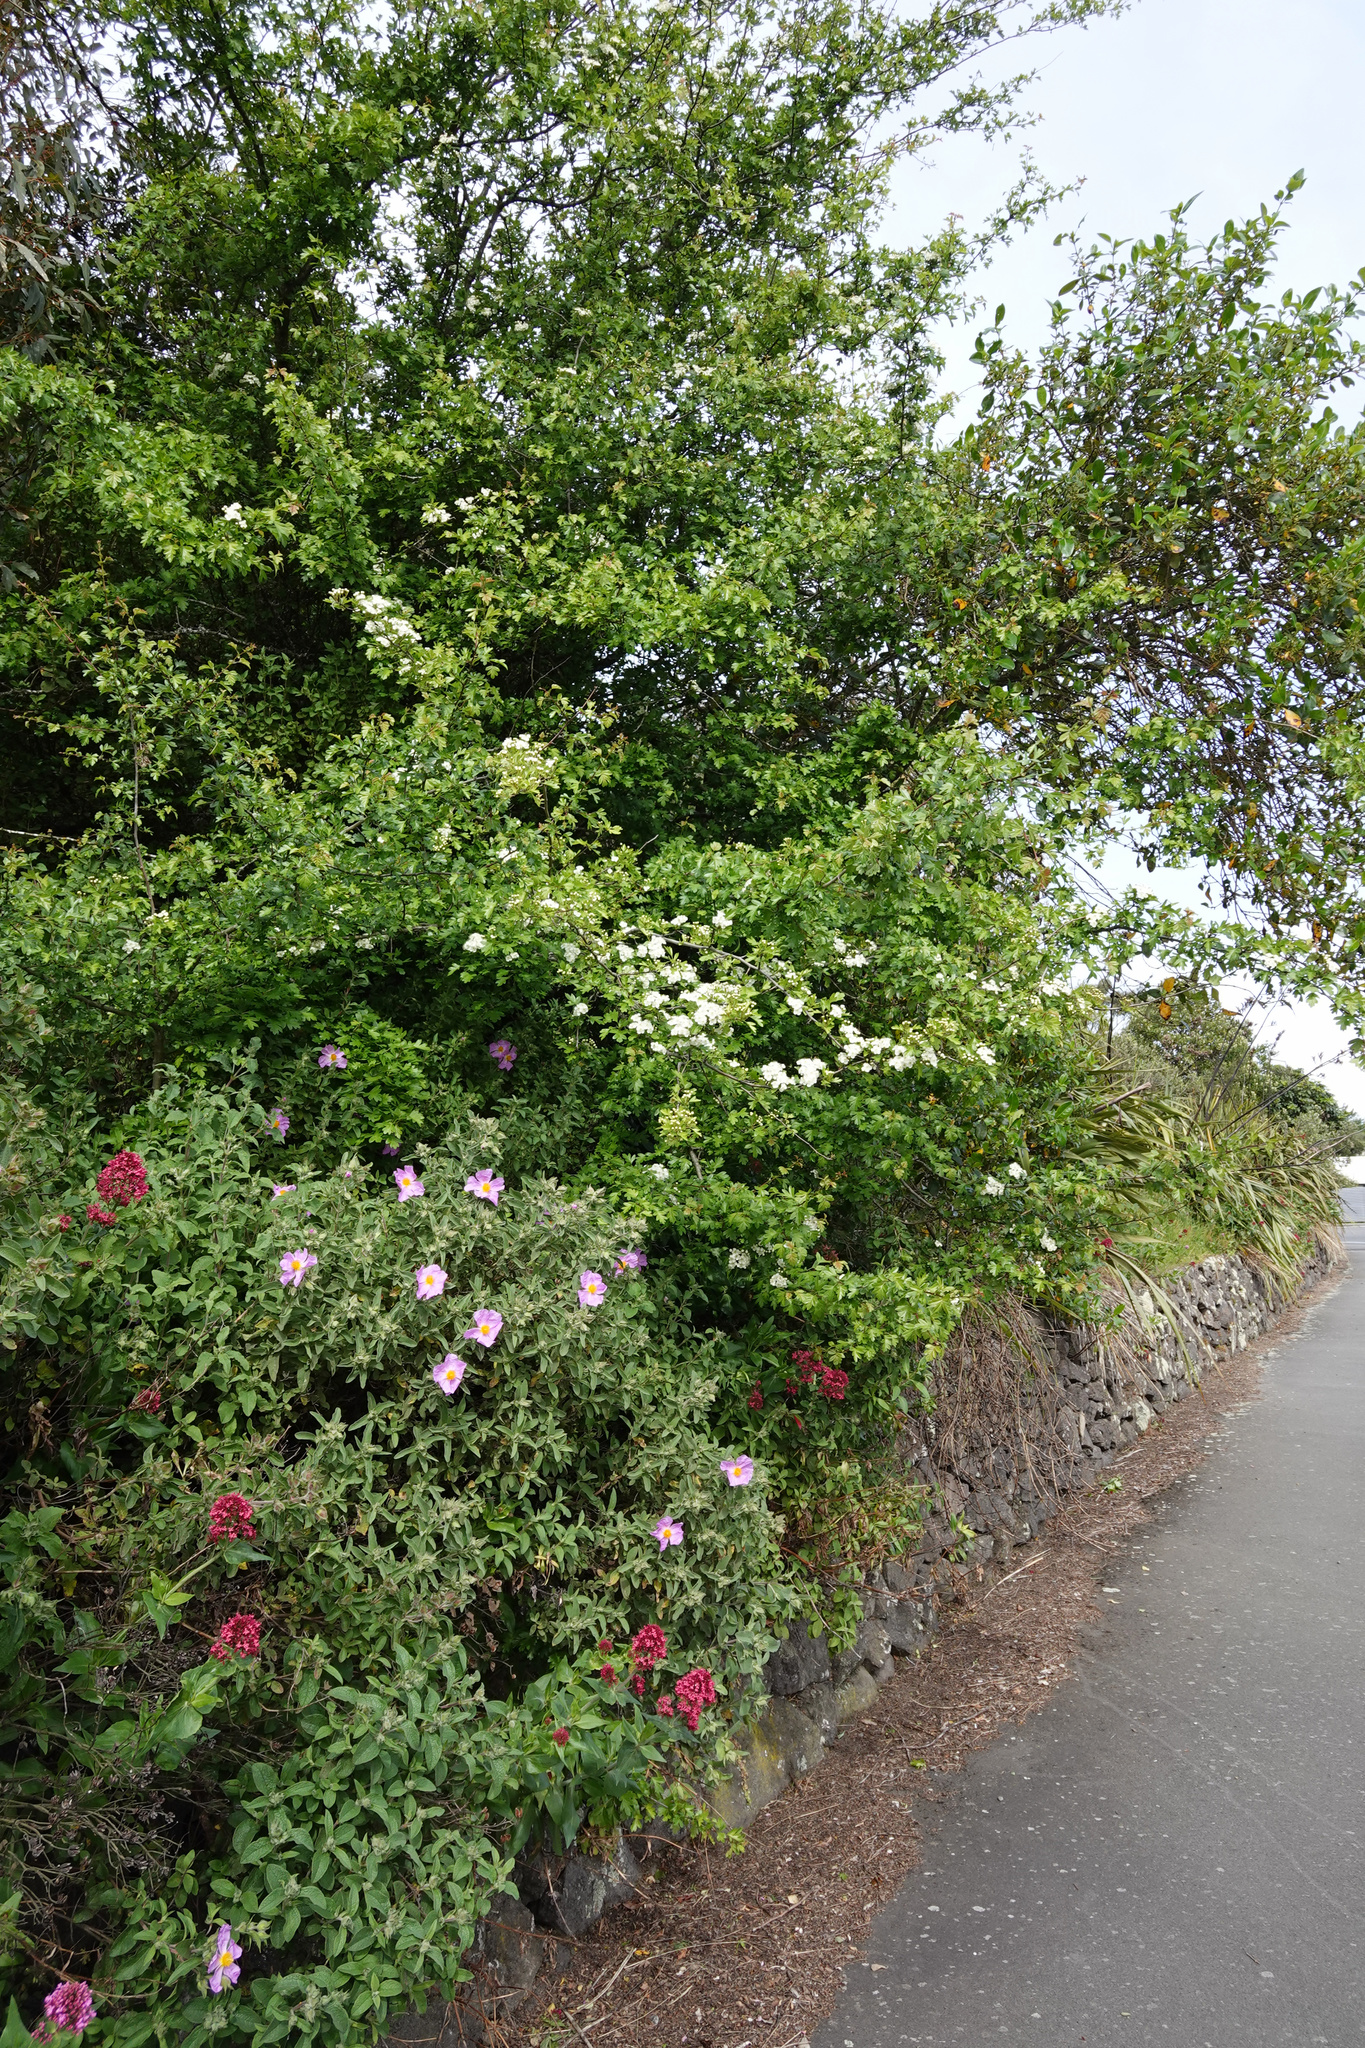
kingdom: Plantae
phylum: Tracheophyta
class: Magnoliopsida
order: Rosales
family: Rosaceae
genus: Crataegus
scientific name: Crataegus monogyna
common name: Hawthorn
